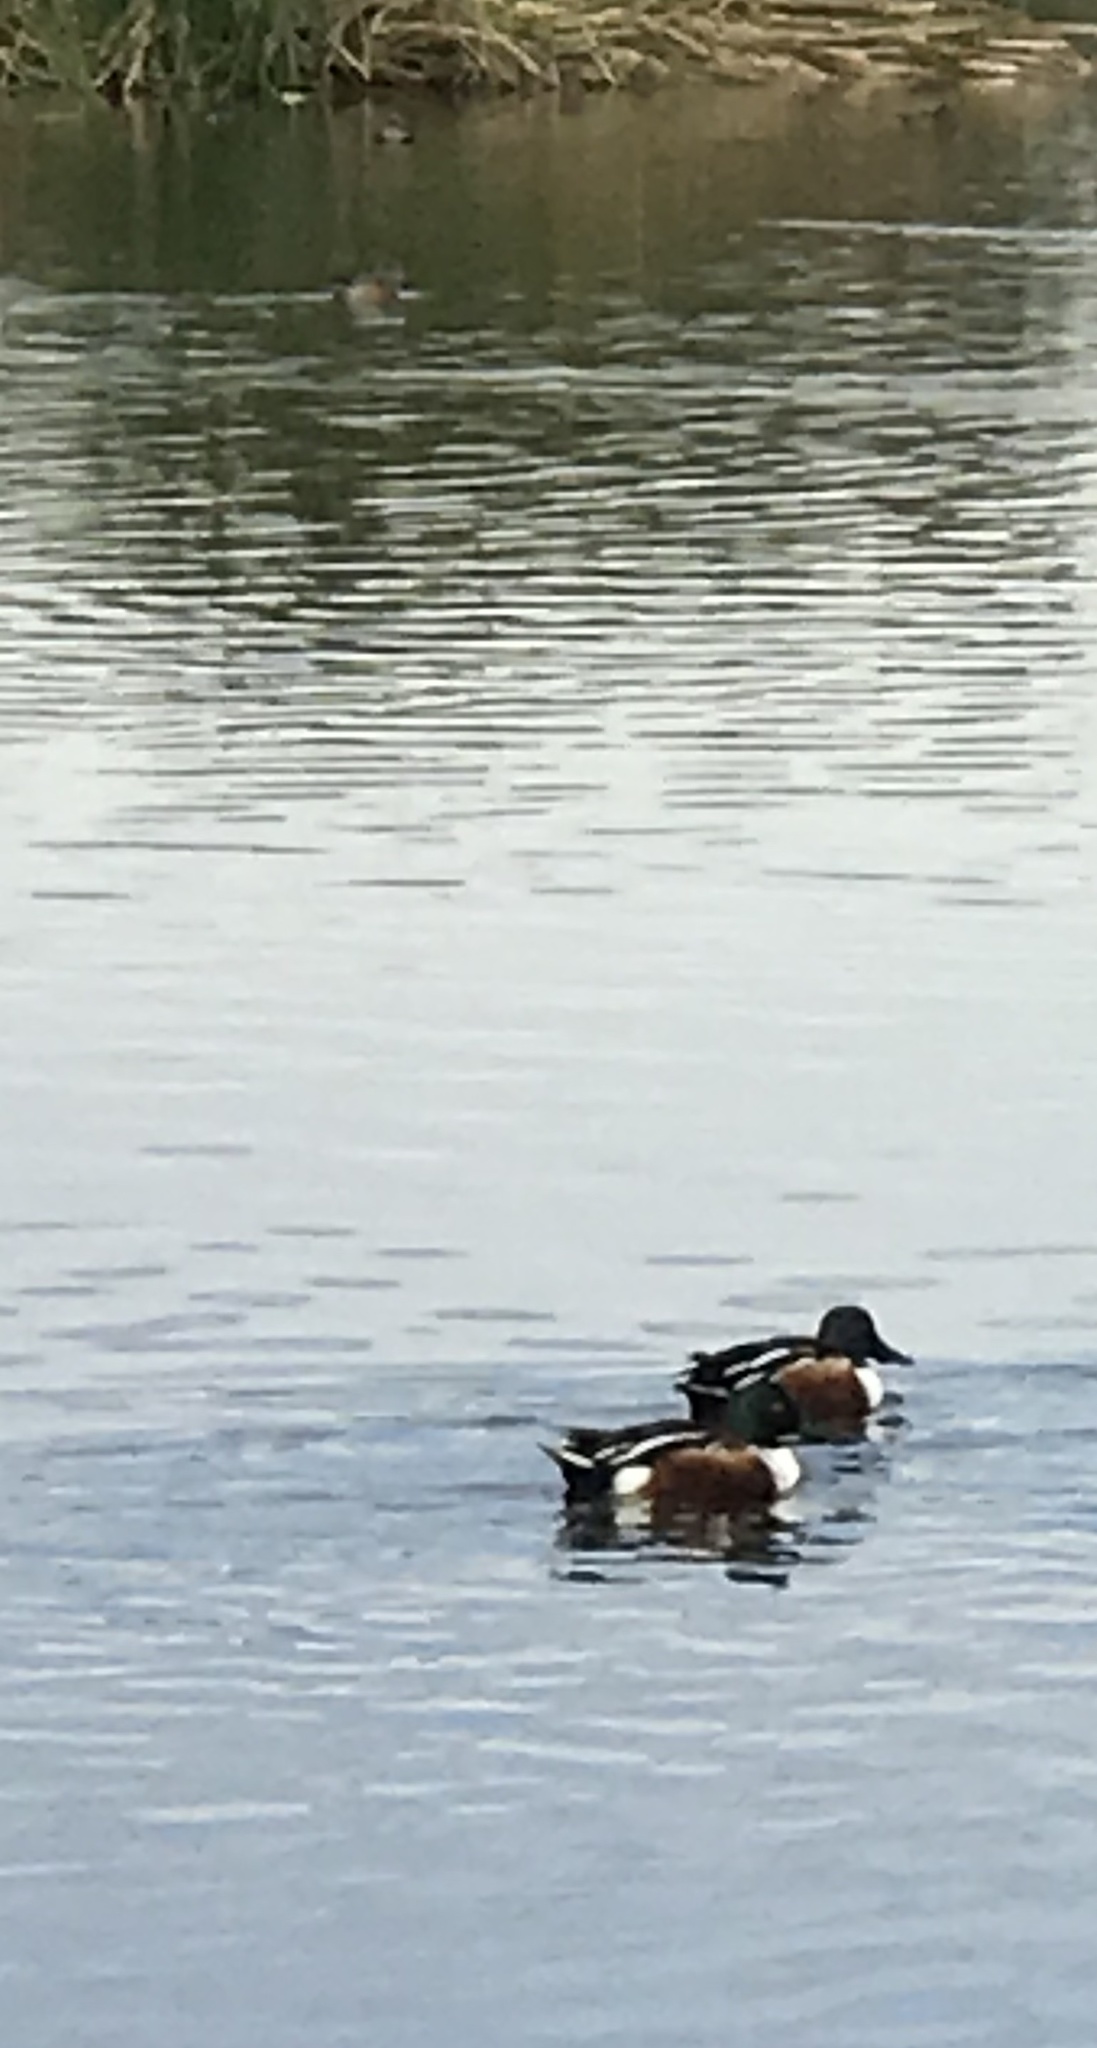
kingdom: Animalia
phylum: Chordata
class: Aves
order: Anseriformes
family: Anatidae
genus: Spatula
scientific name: Spatula clypeata
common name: Northern shoveler
